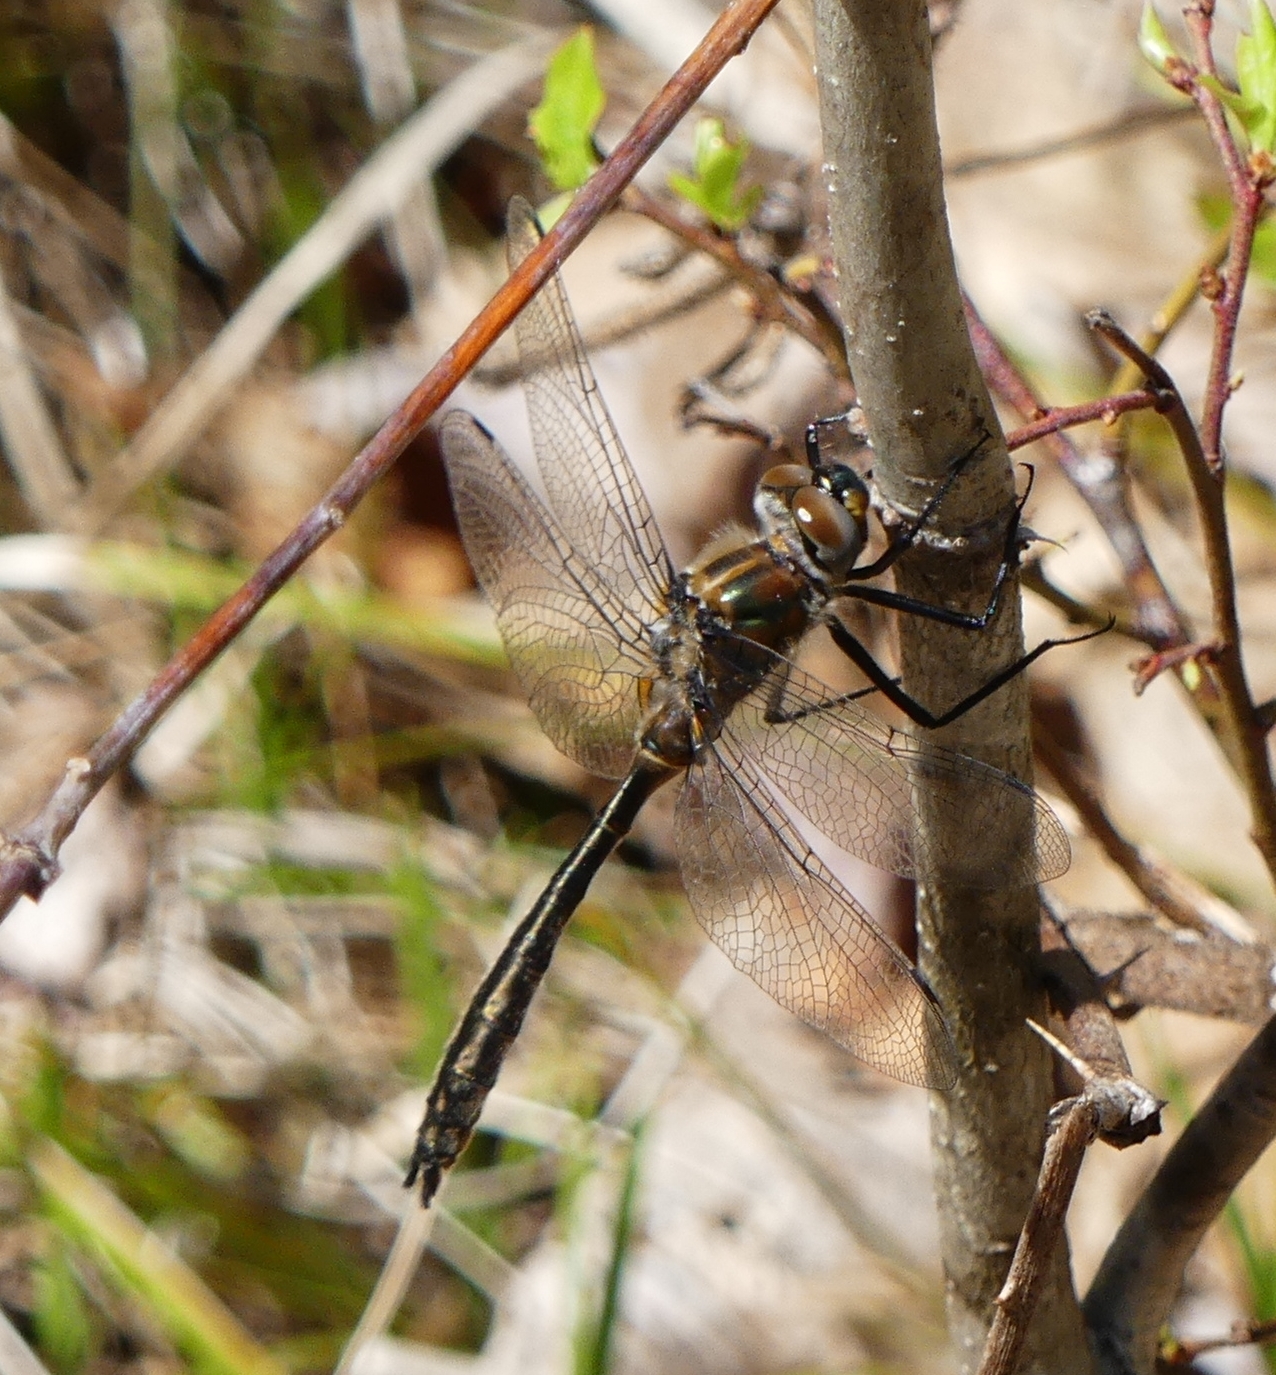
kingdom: Animalia
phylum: Arthropoda
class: Insecta
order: Odonata
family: Corduliidae
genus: Cordulia
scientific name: Cordulia shurtleffii
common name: American emerald
